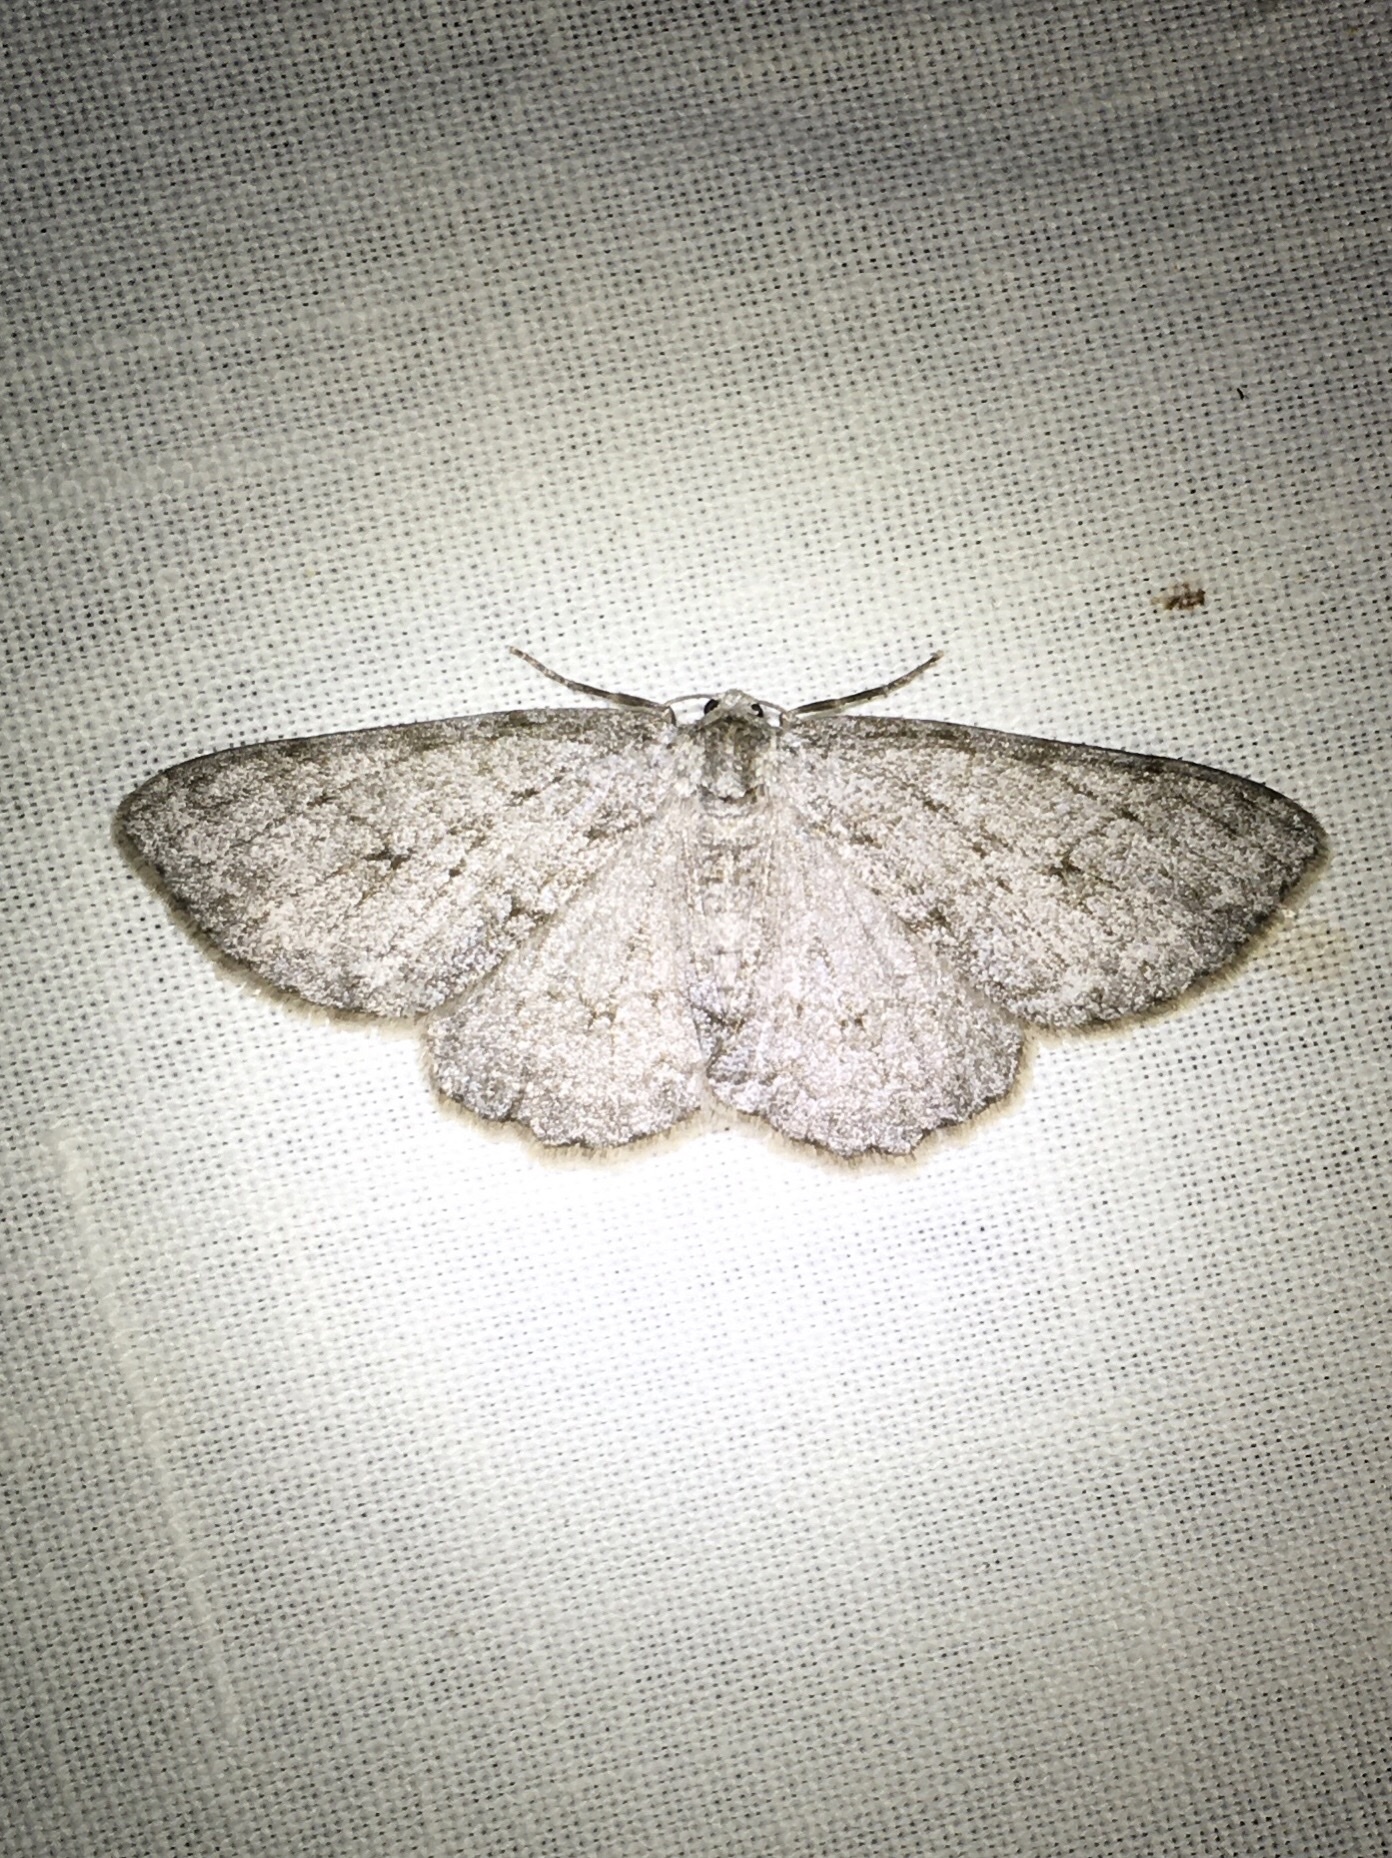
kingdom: Animalia
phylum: Arthropoda
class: Insecta
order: Lepidoptera
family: Geometridae
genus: Ectropis
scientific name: Ectropis crepuscularia
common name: Engrailed
